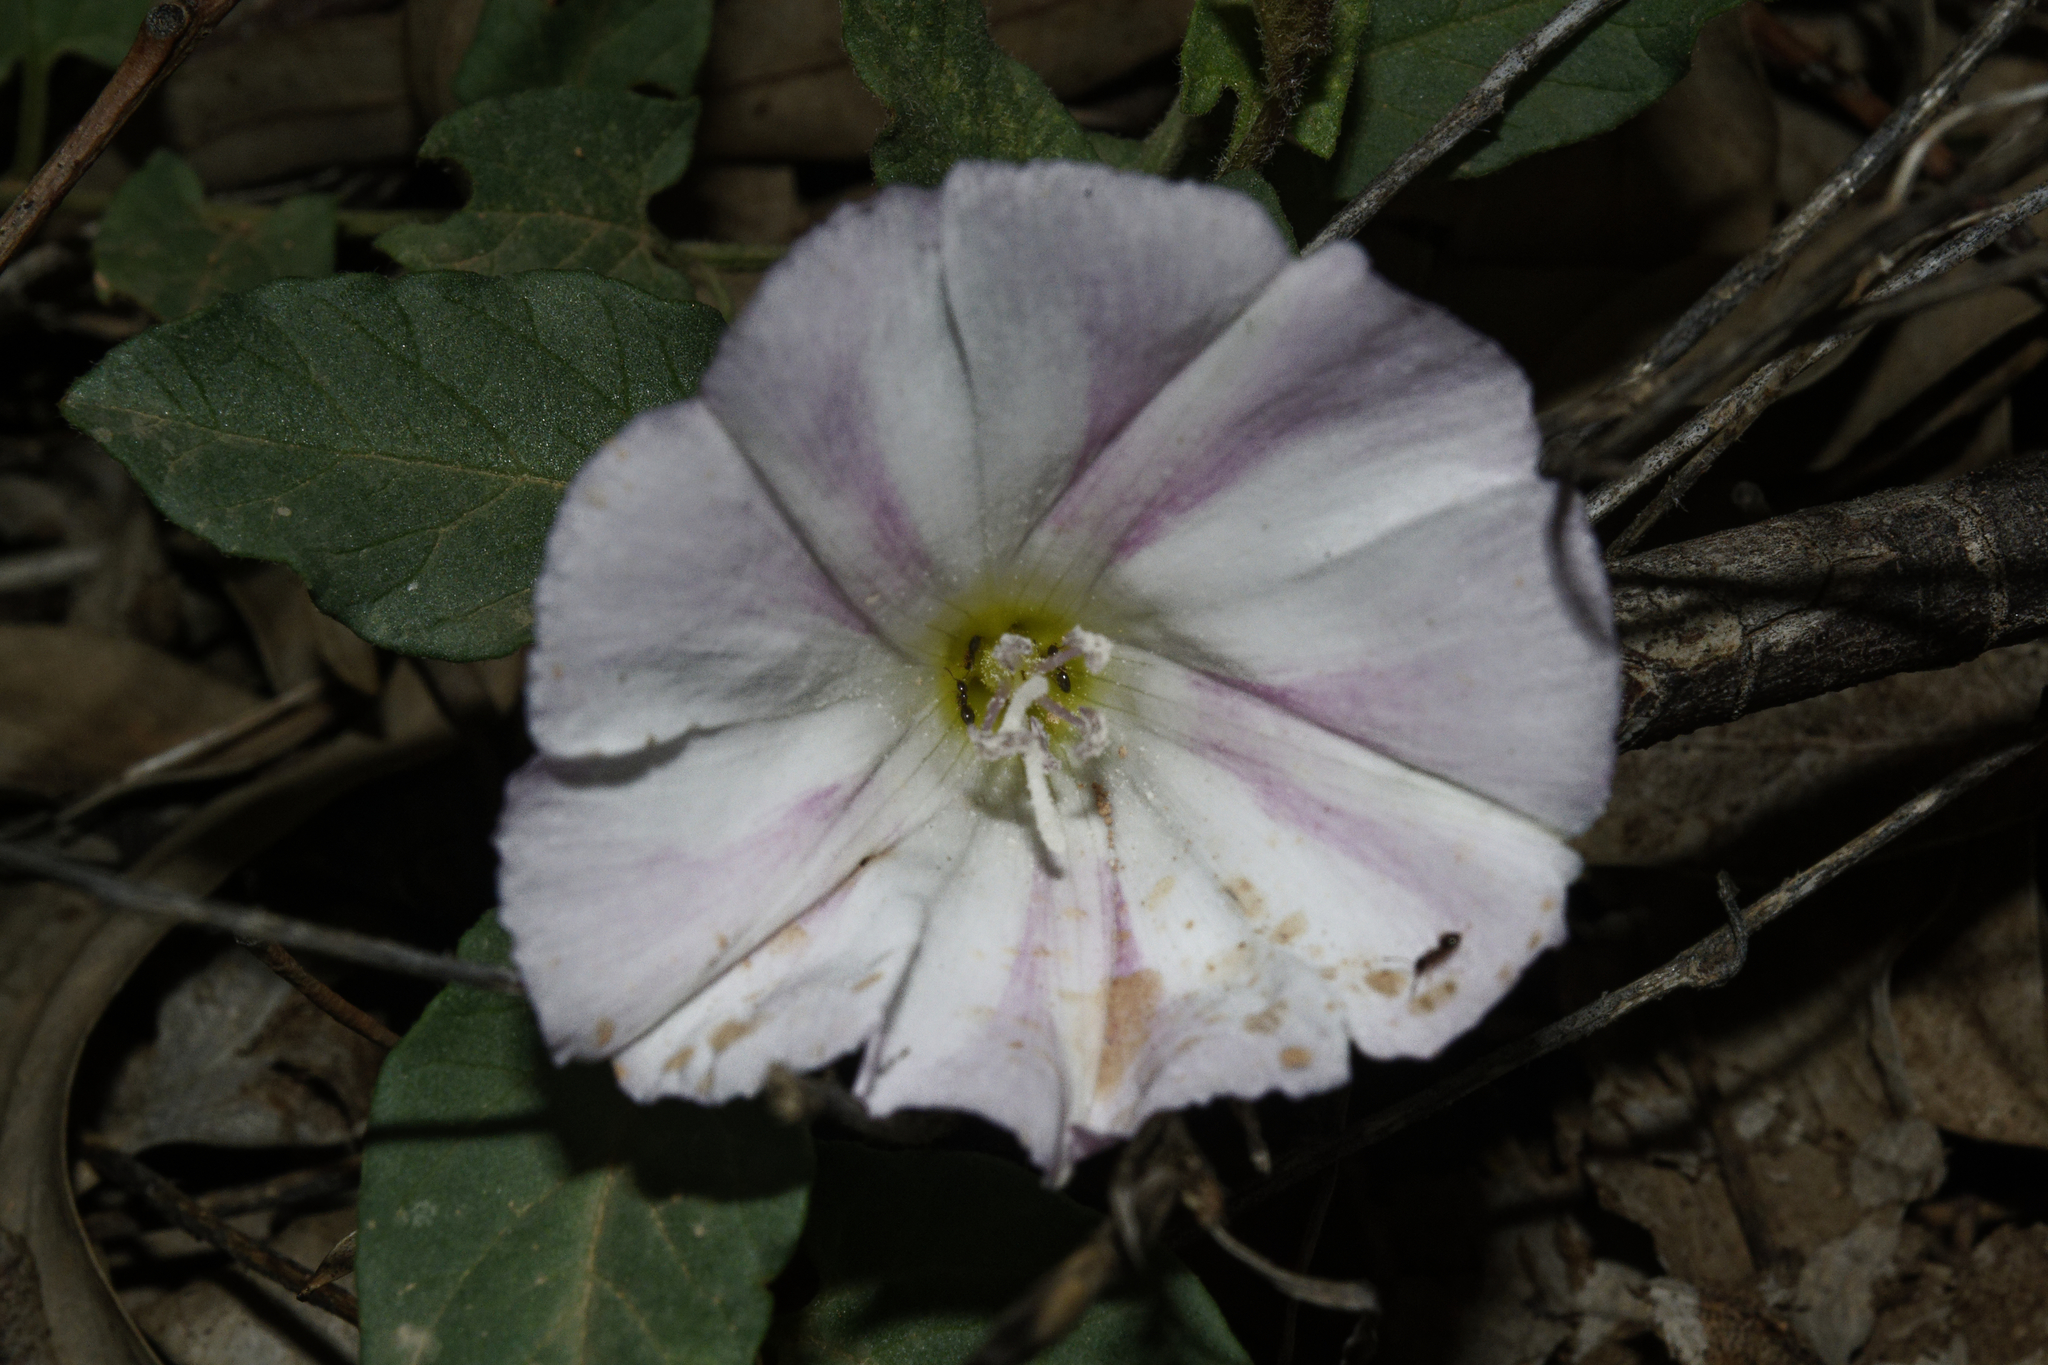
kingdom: Plantae
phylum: Tracheophyta
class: Magnoliopsida
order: Solanales
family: Convolvulaceae
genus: Convolvulus
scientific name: Convolvulus arvensis
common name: Field bindweed
